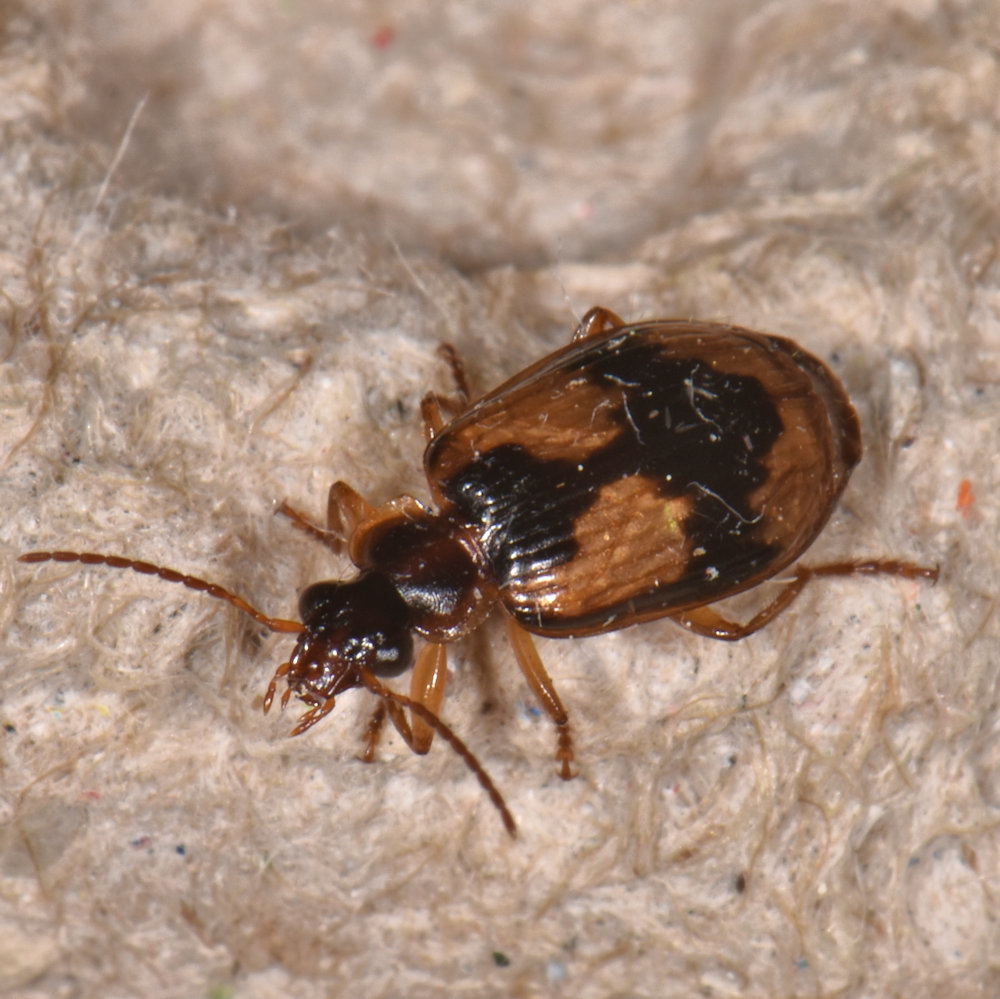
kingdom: Animalia
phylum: Arthropoda
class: Insecta
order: Coleoptera
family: Carabidae
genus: Lebia
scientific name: Lebia fuscata
